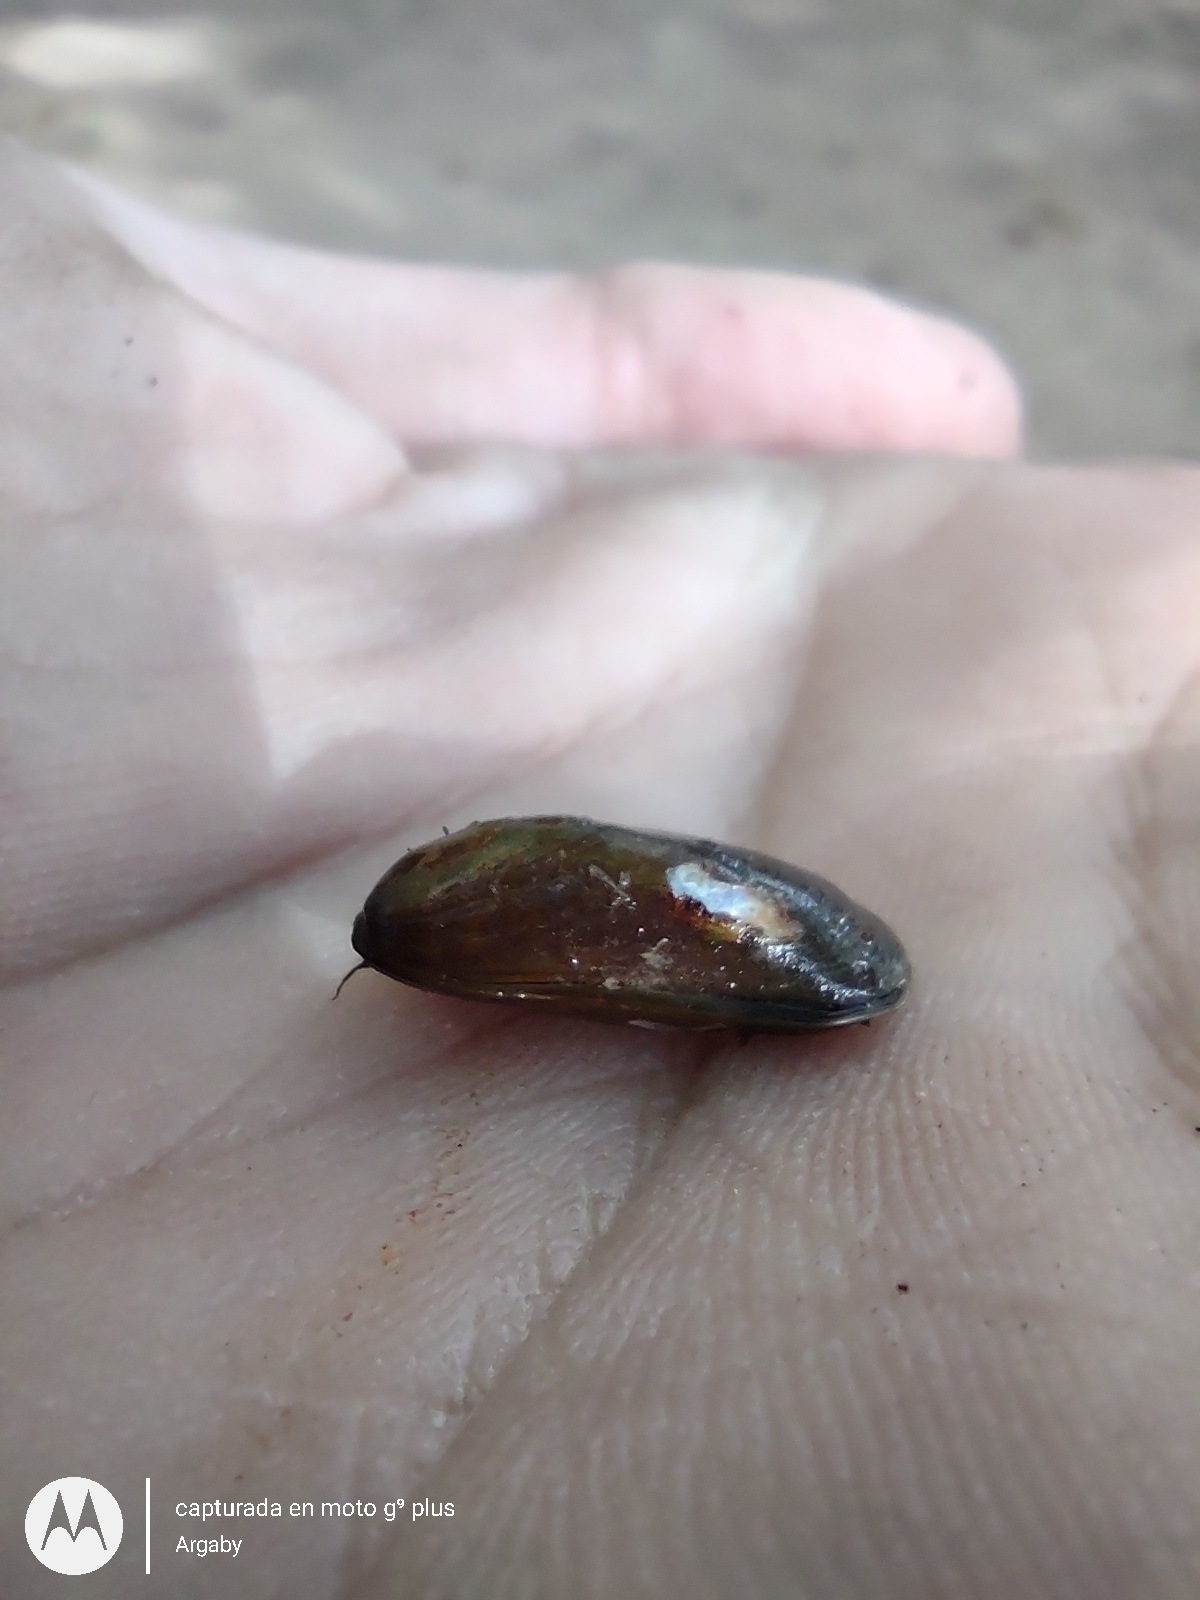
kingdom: Animalia
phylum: Mollusca
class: Bivalvia
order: Mytilida
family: Mytilidae
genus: Limnoperna
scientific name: Limnoperna fortunei
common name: Golden mussel
